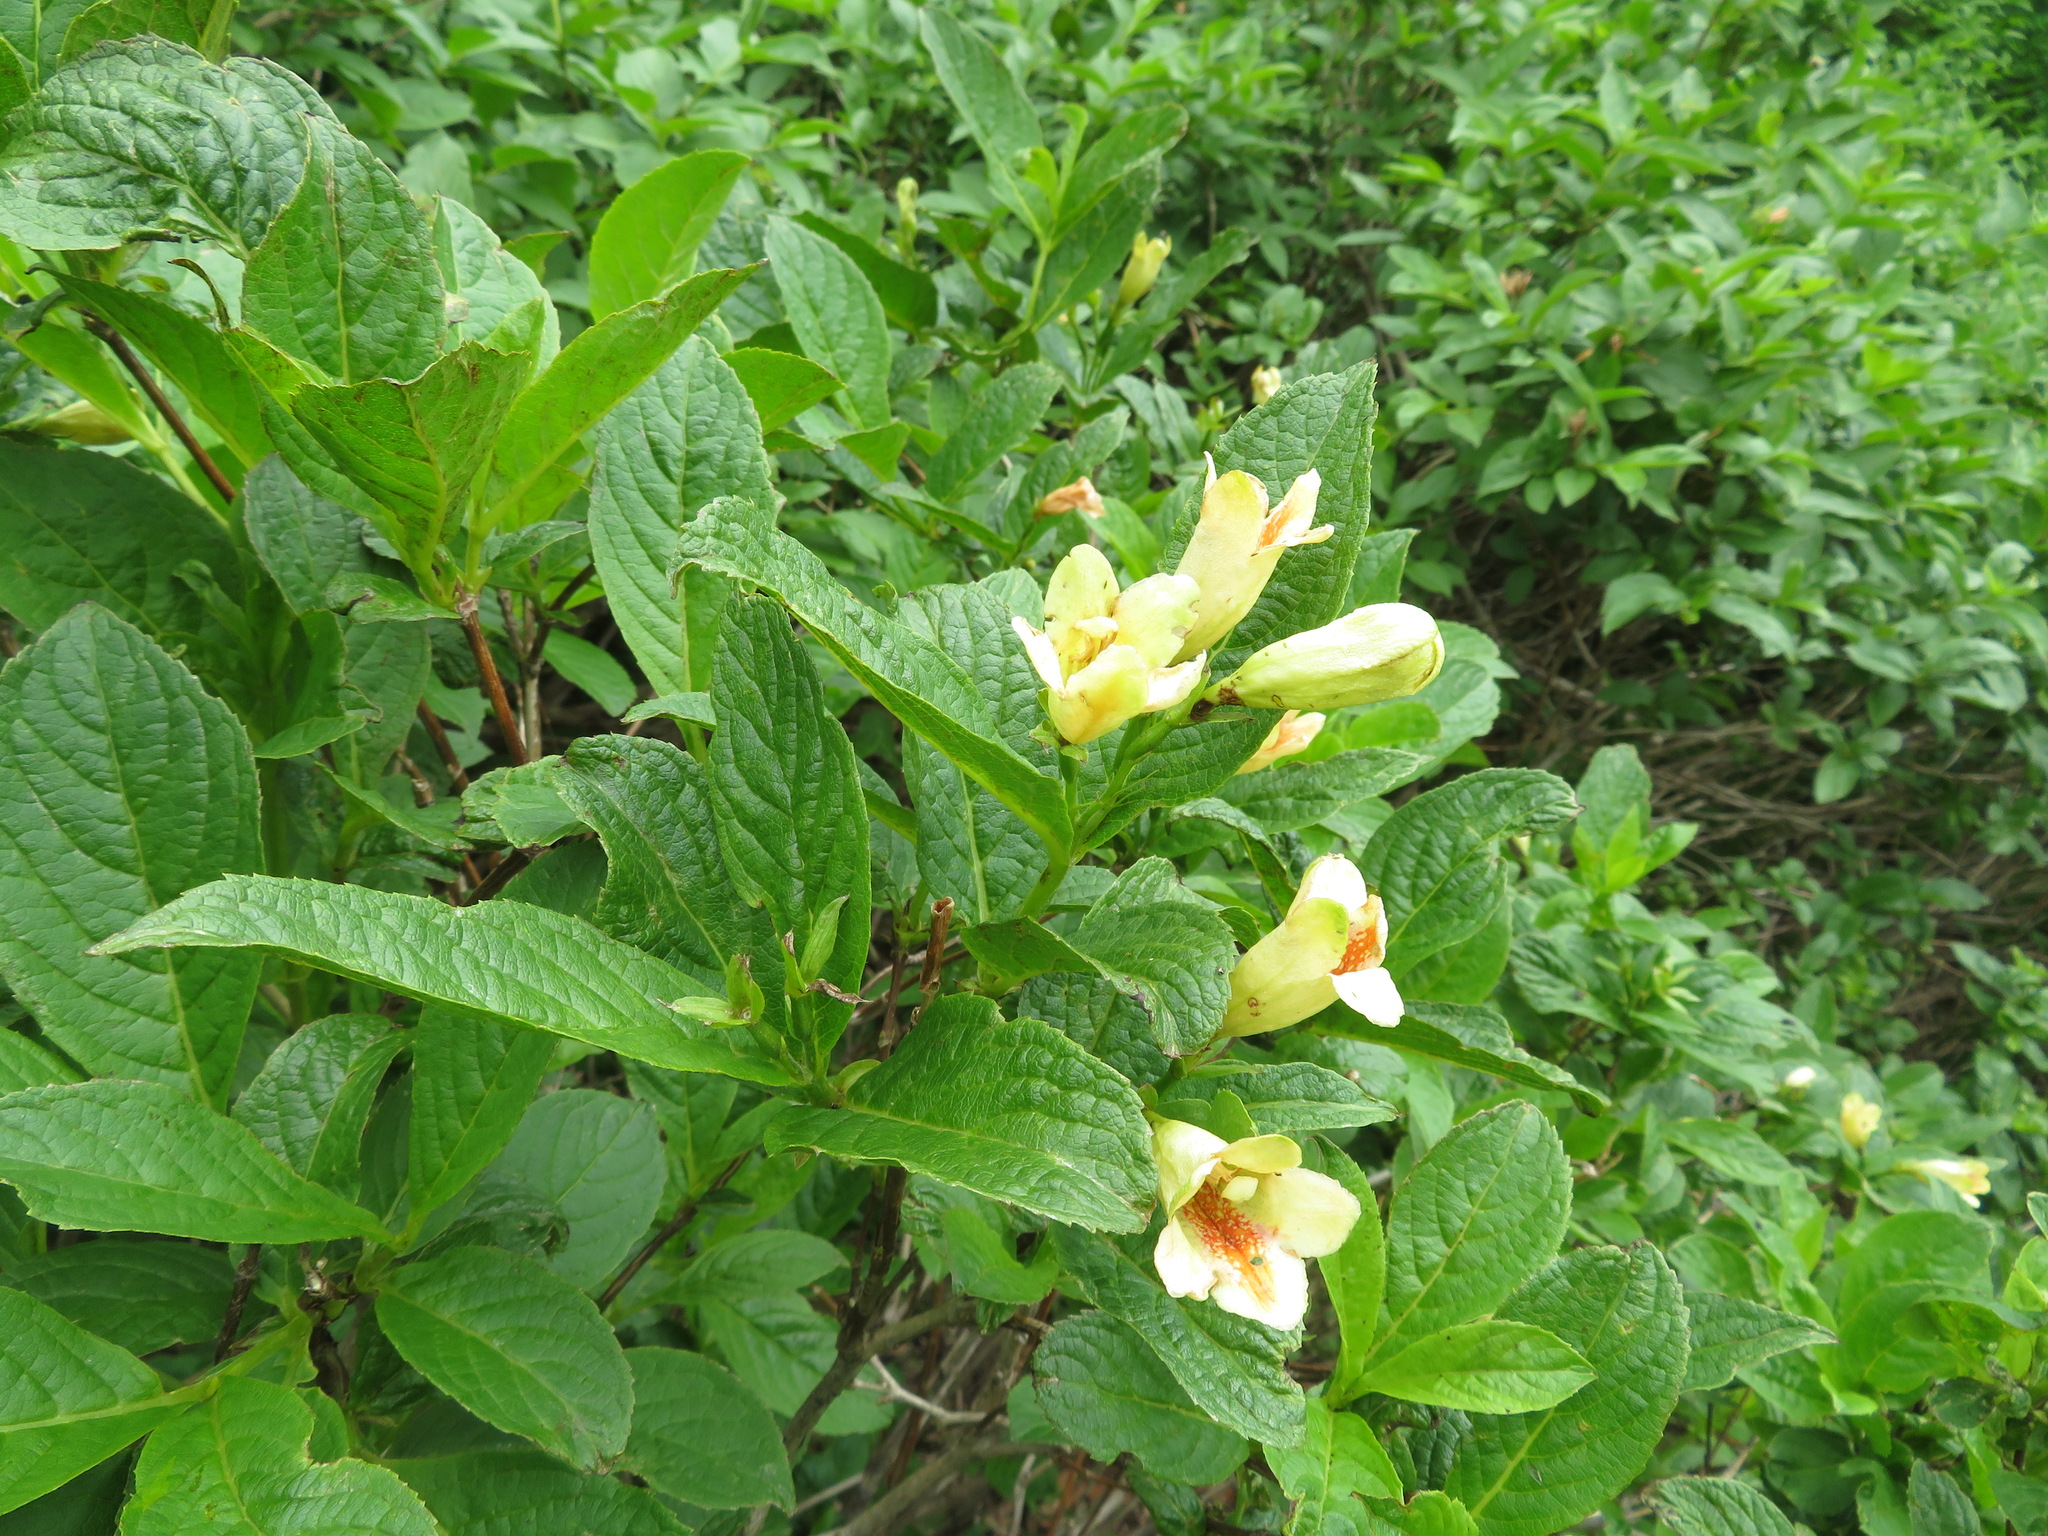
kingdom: Plantae
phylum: Tracheophyta
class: Magnoliopsida
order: Dipsacales
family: Caprifoliaceae
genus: Weigela
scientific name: Weigela middendorffiana
